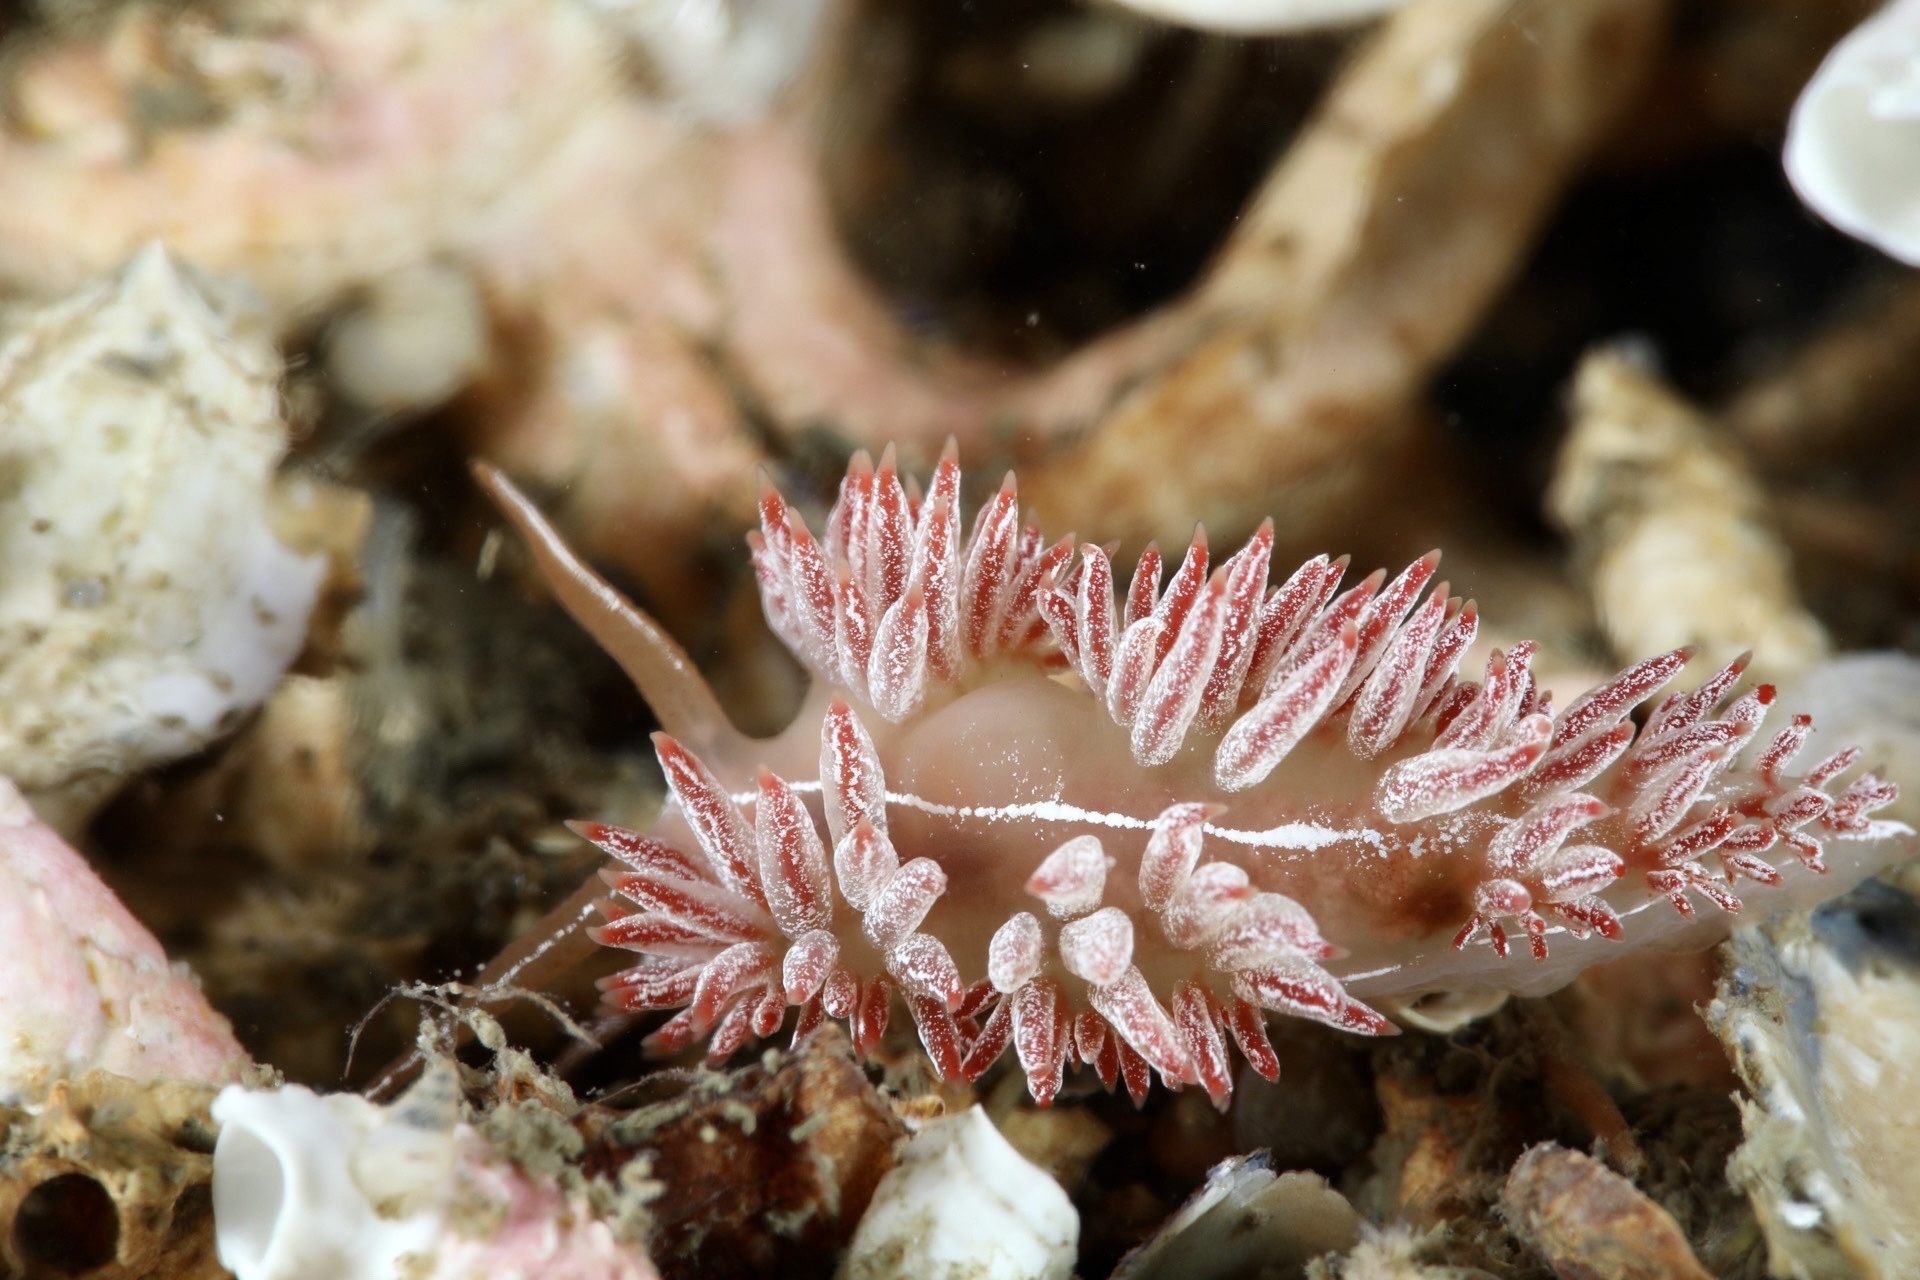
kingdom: Animalia
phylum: Mollusca
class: Gastropoda
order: Nudibranchia
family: Coryphellidae
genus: Coryphella
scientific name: Coryphella chriskaugei
